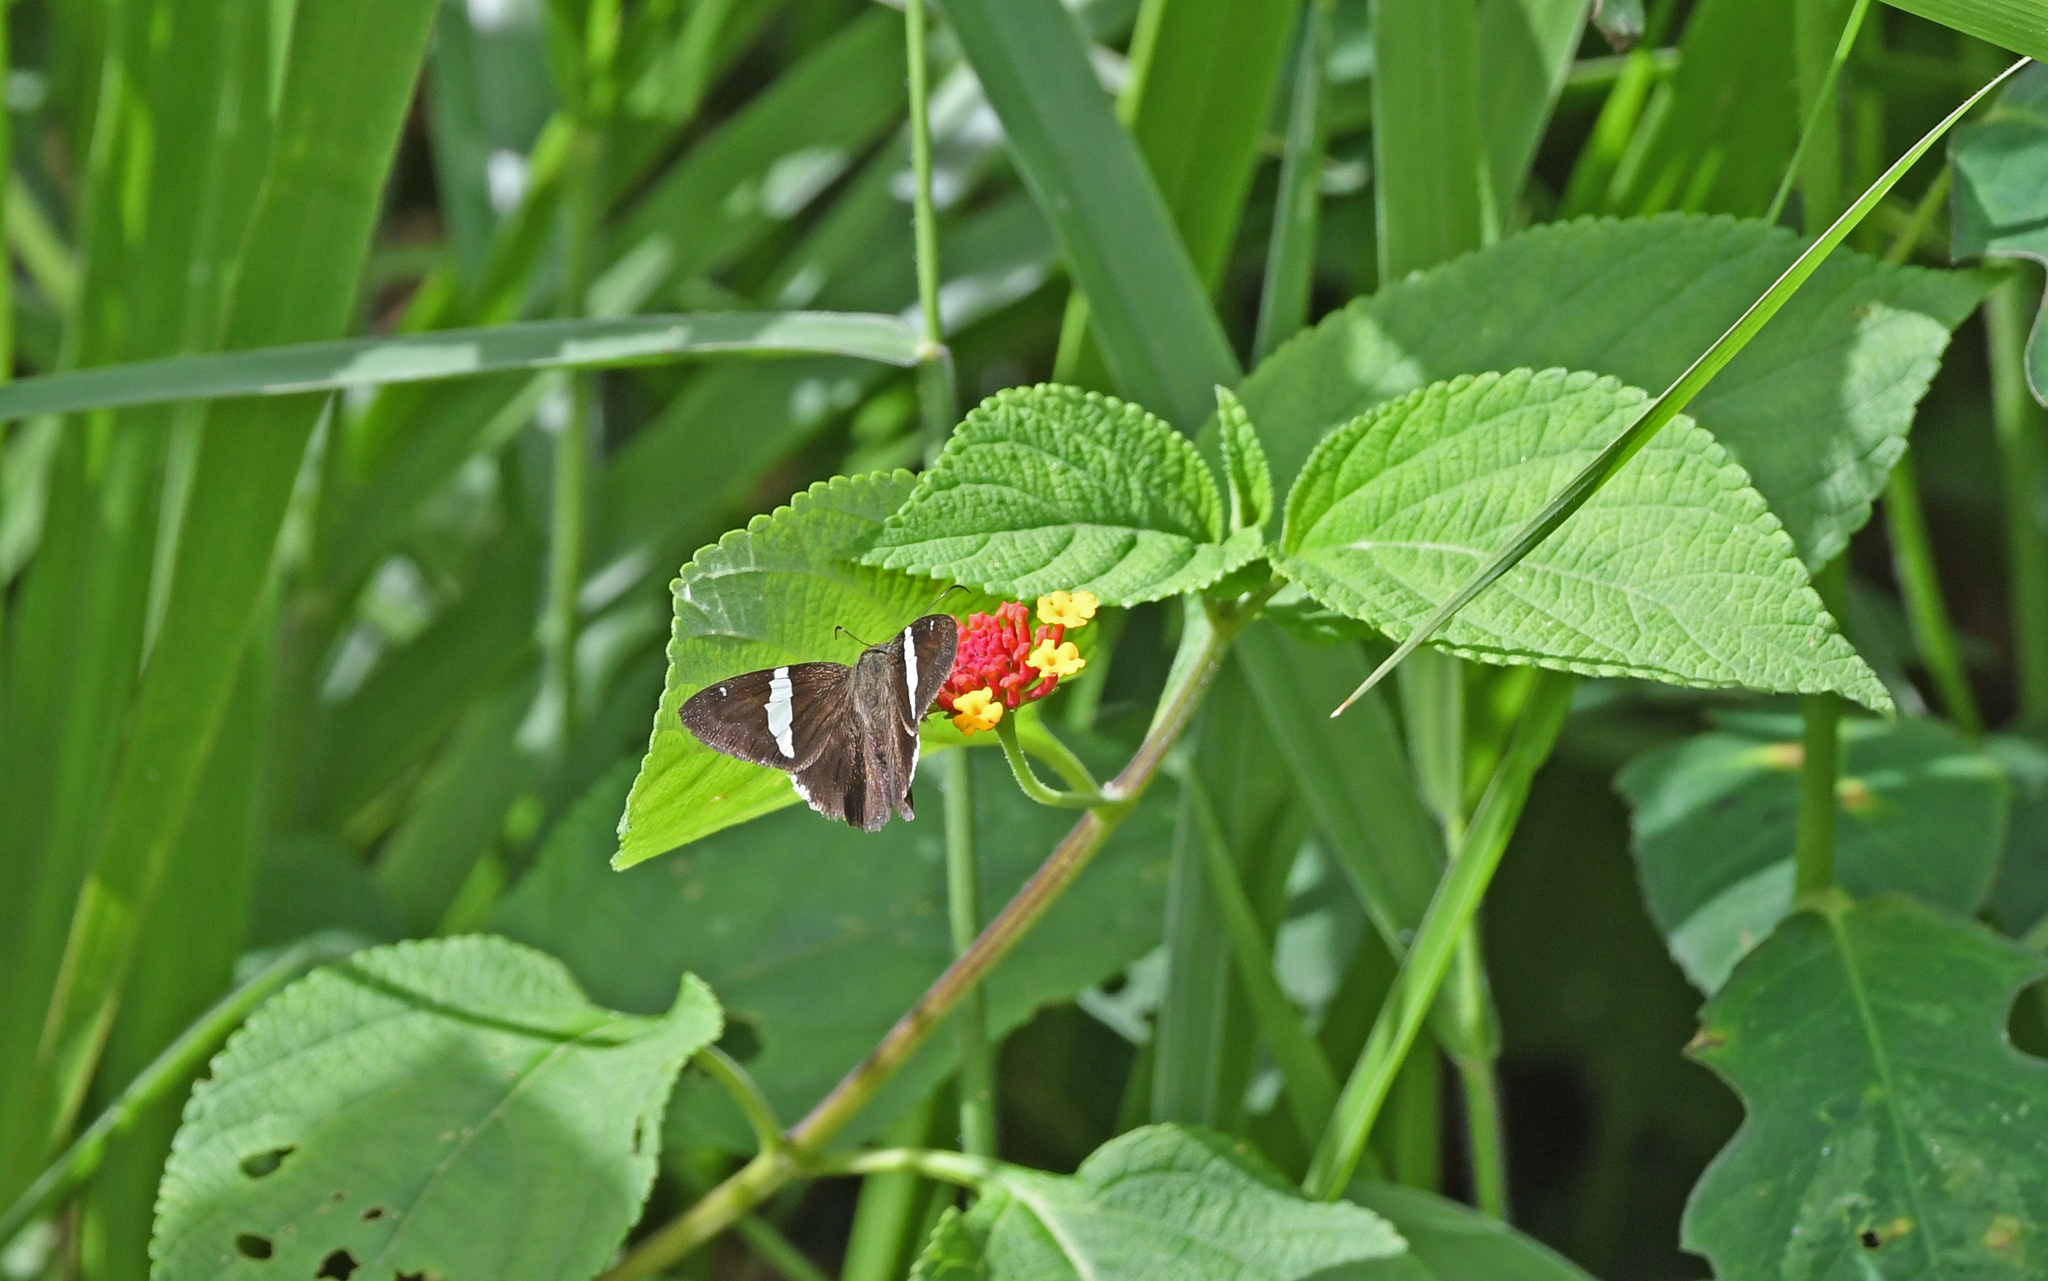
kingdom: Animalia
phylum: Arthropoda
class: Insecta
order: Lepidoptera
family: Hesperiidae
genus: Autochton
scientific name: Autochton bipunctatus
